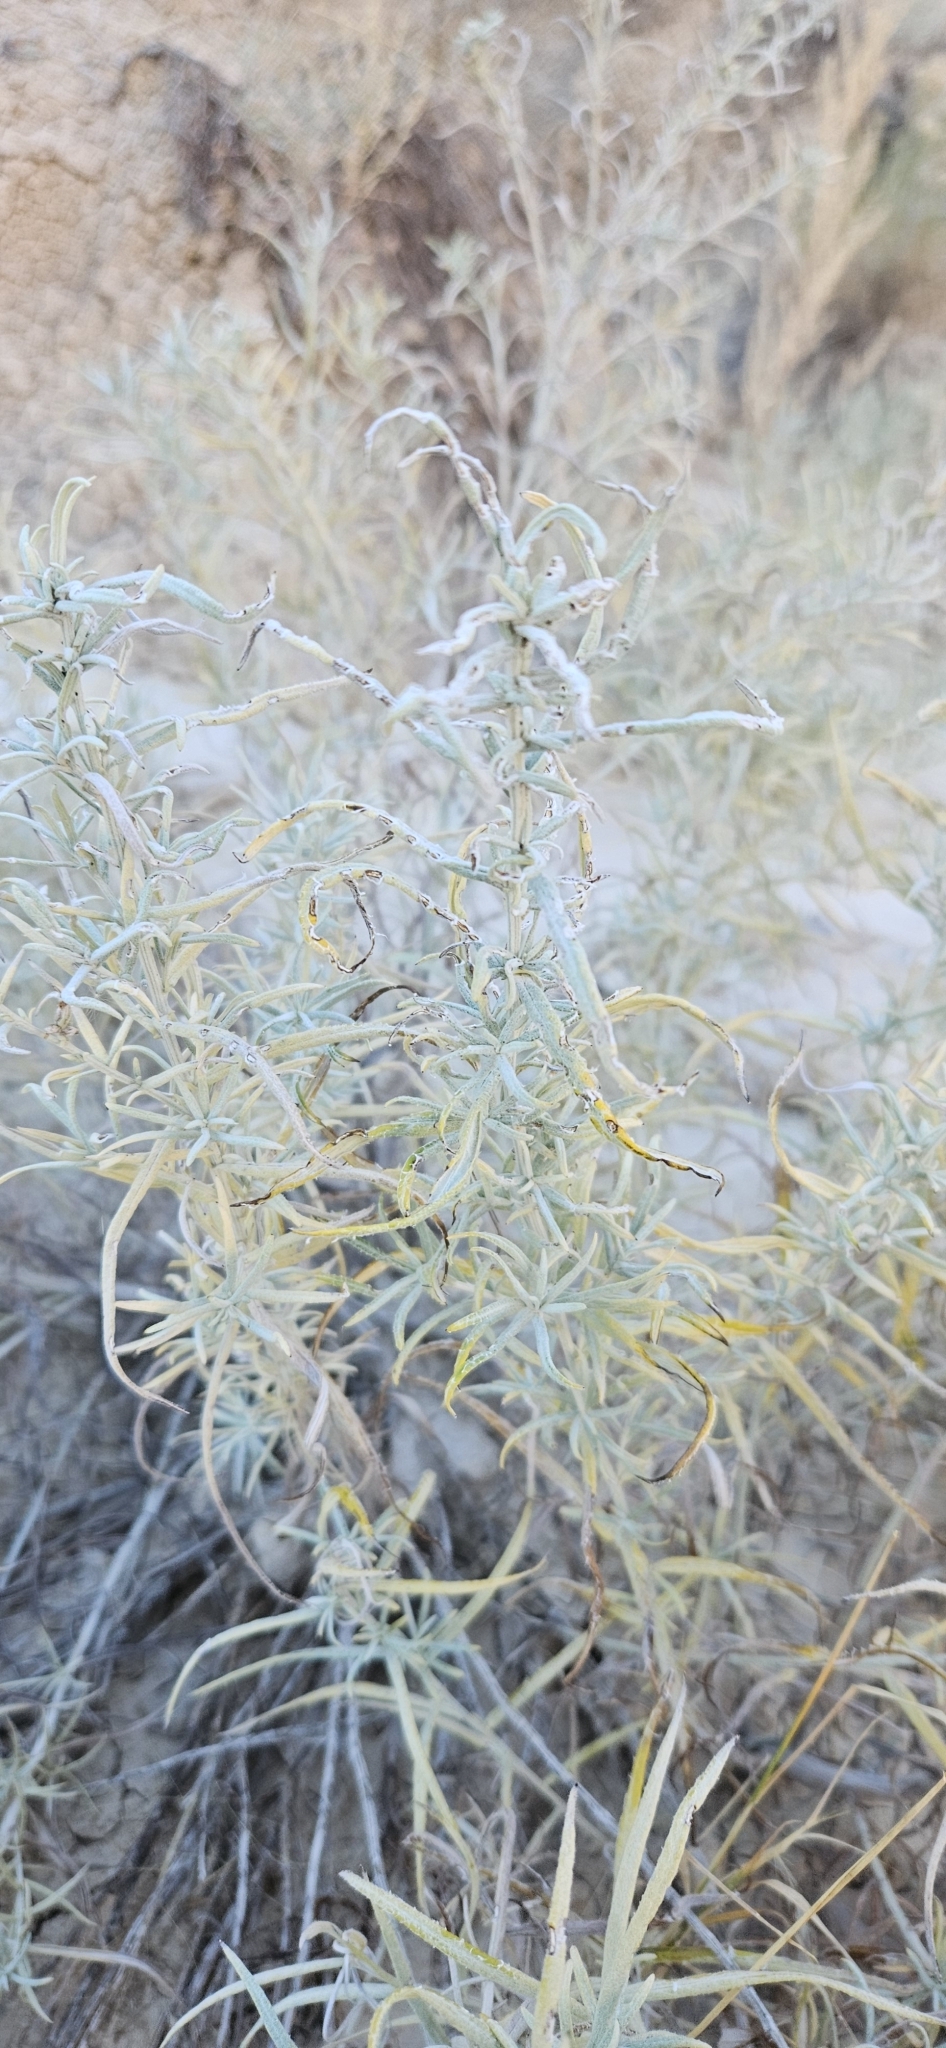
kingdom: Plantae
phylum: Tracheophyta
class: Magnoliopsida
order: Asterales
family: Asteraceae
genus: Ericameria
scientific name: Ericameria nauseosa
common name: Rubber rabbitbrush
